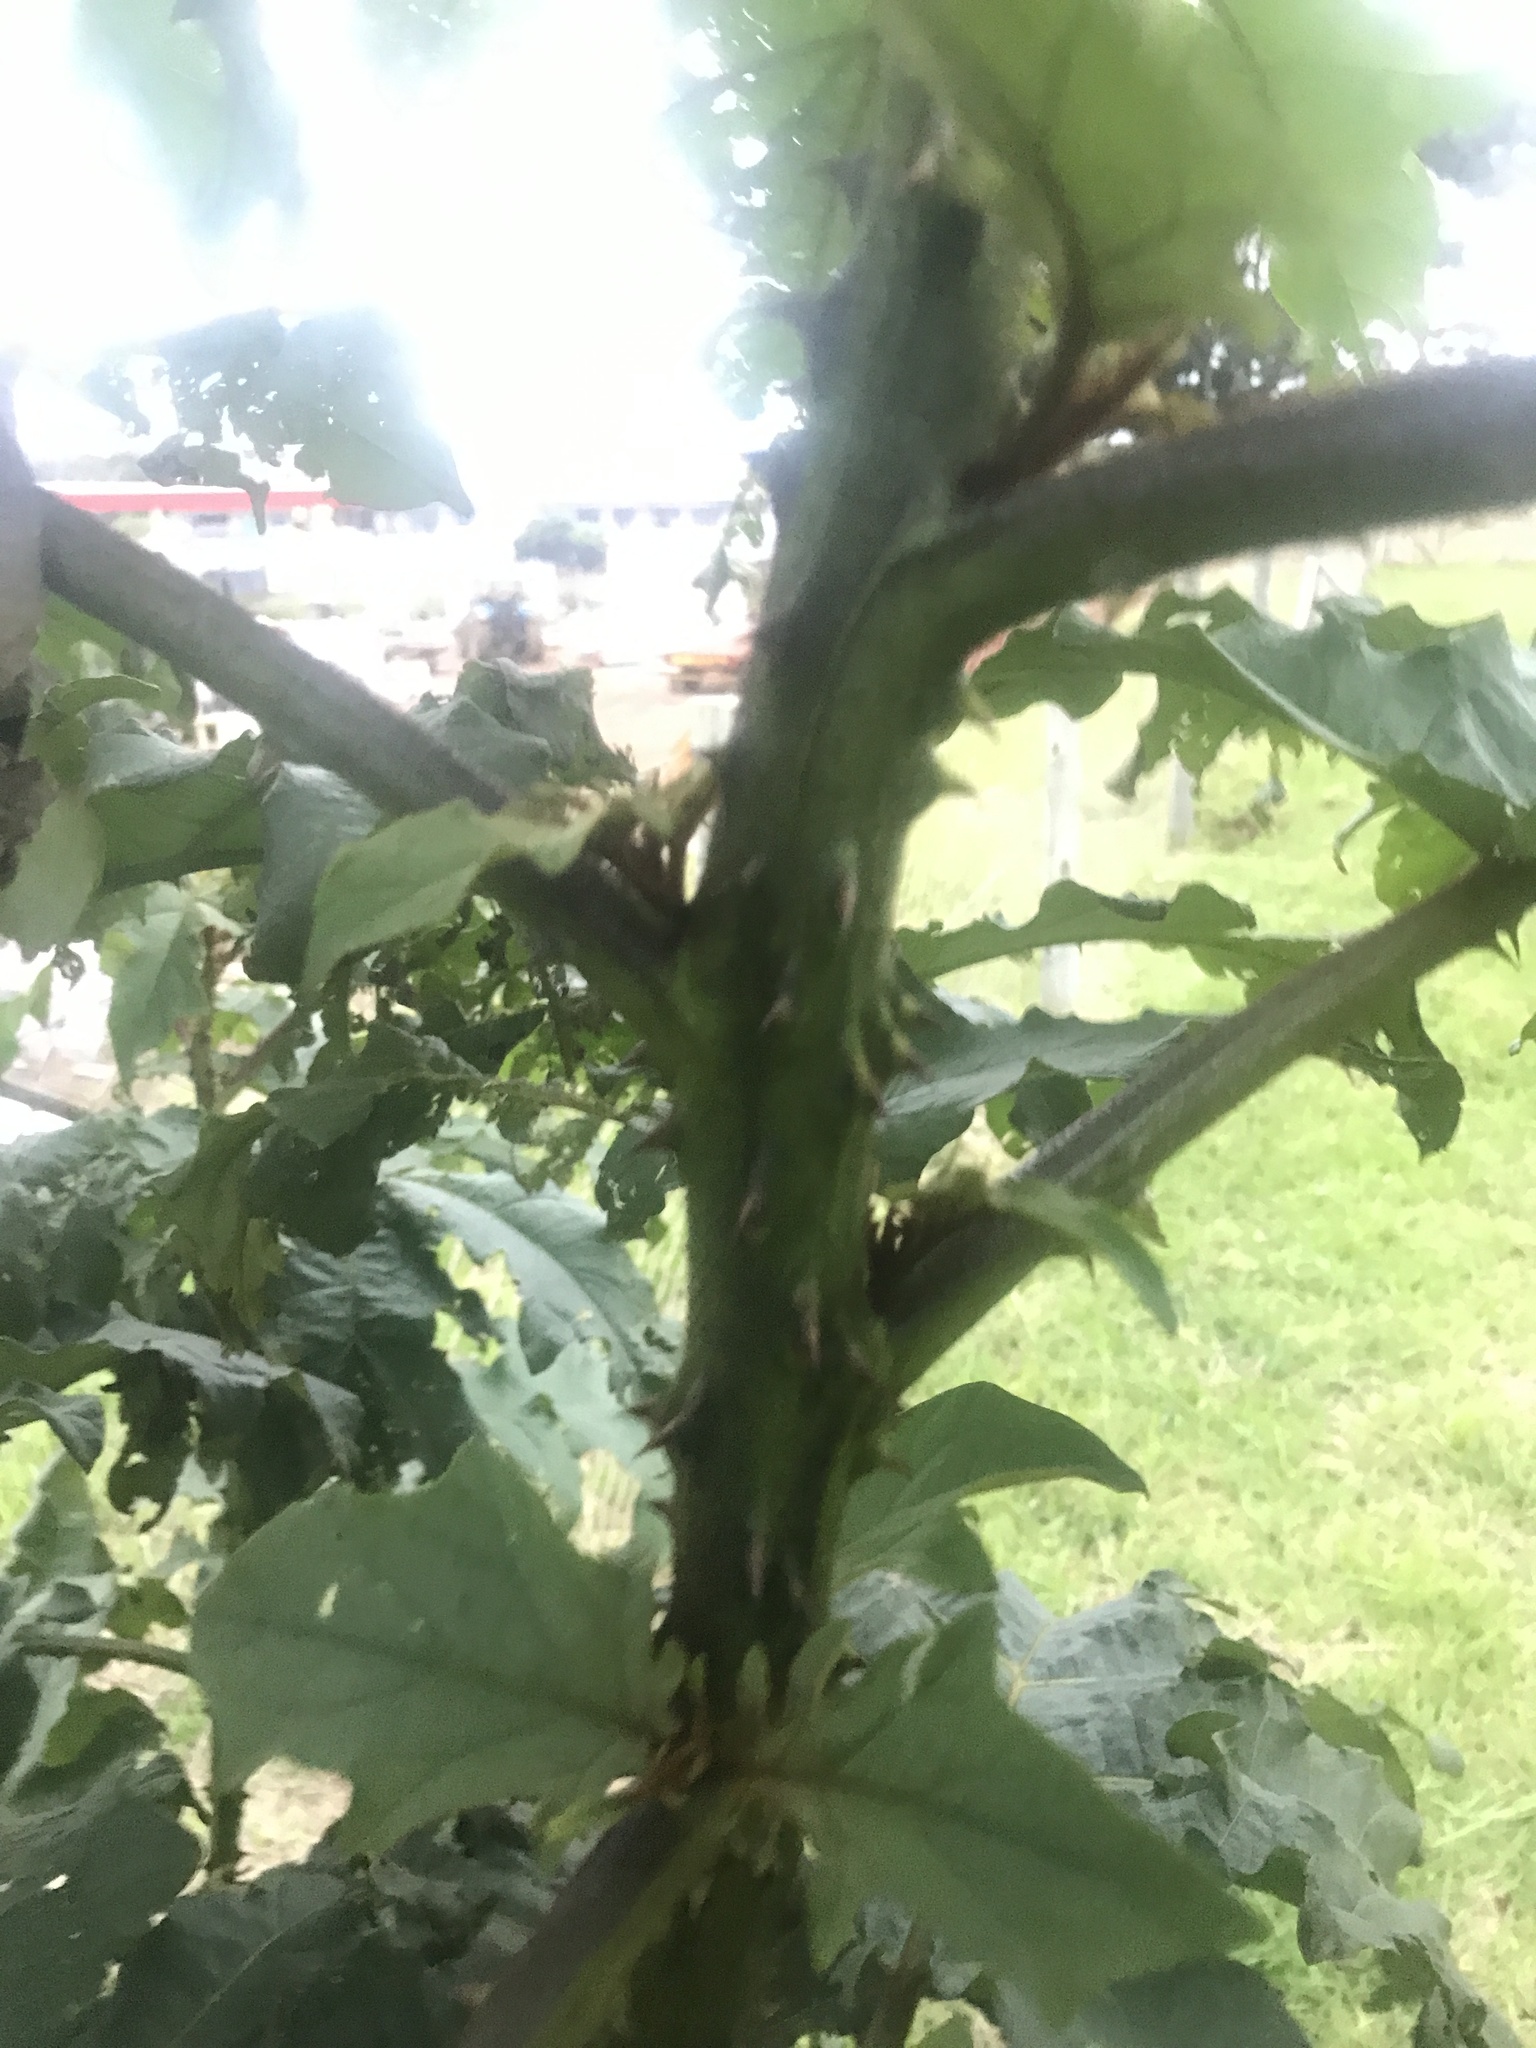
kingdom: Plantae
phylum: Tracheophyta
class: Magnoliopsida
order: Solanales
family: Solanaceae
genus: Solanum
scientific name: Solanum chrysotrichum
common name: Nightshade
